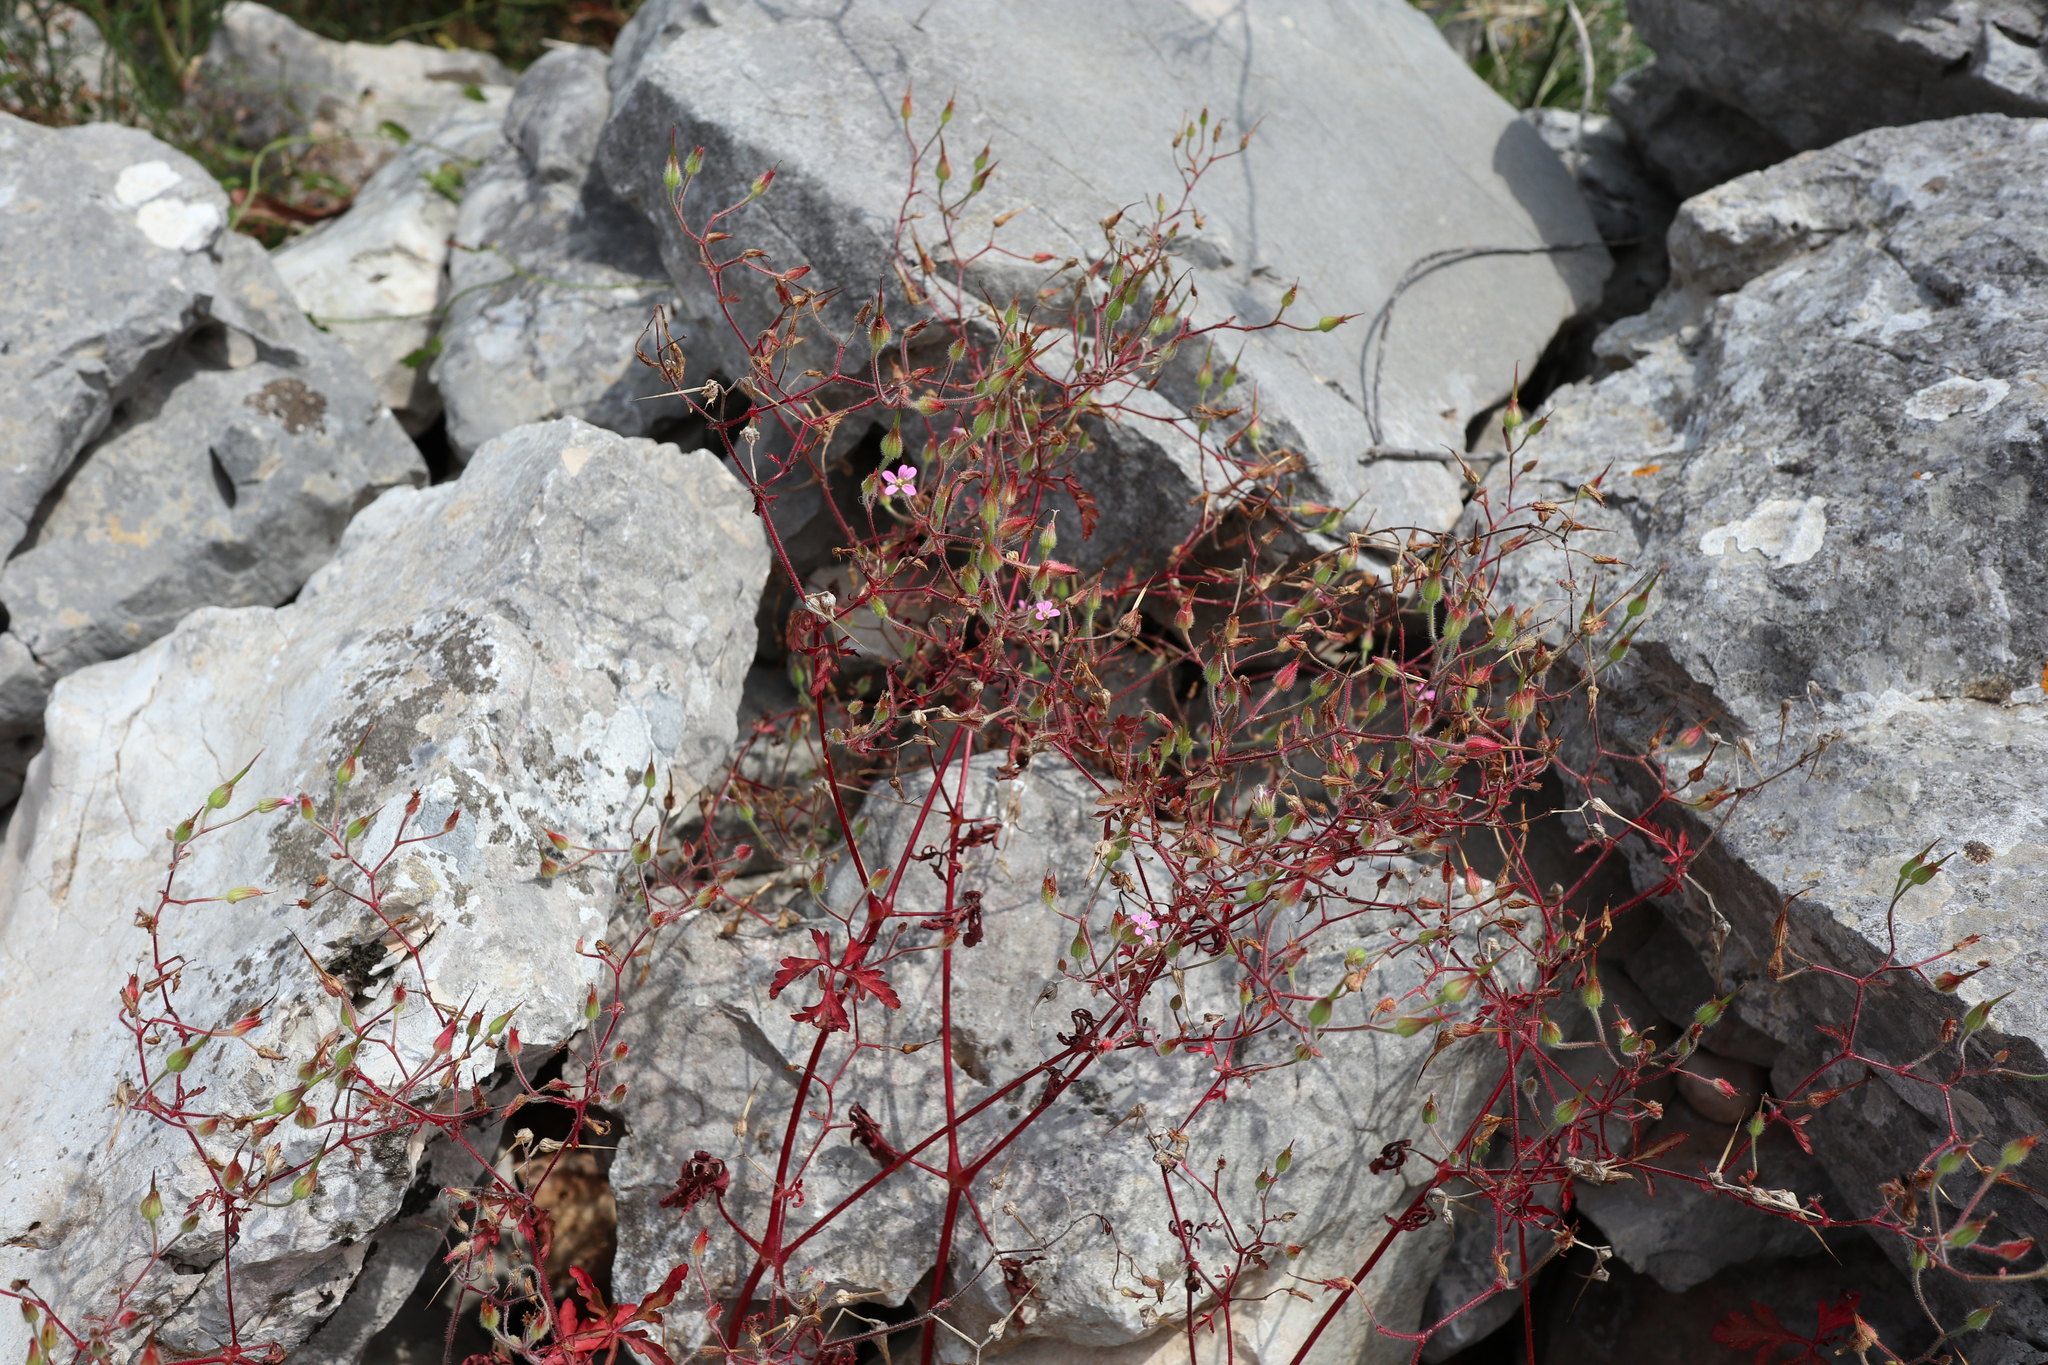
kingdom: Plantae
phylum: Tracheophyta
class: Magnoliopsida
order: Geraniales
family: Geraniaceae
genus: Geranium
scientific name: Geranium robertianum
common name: Herb-robert
